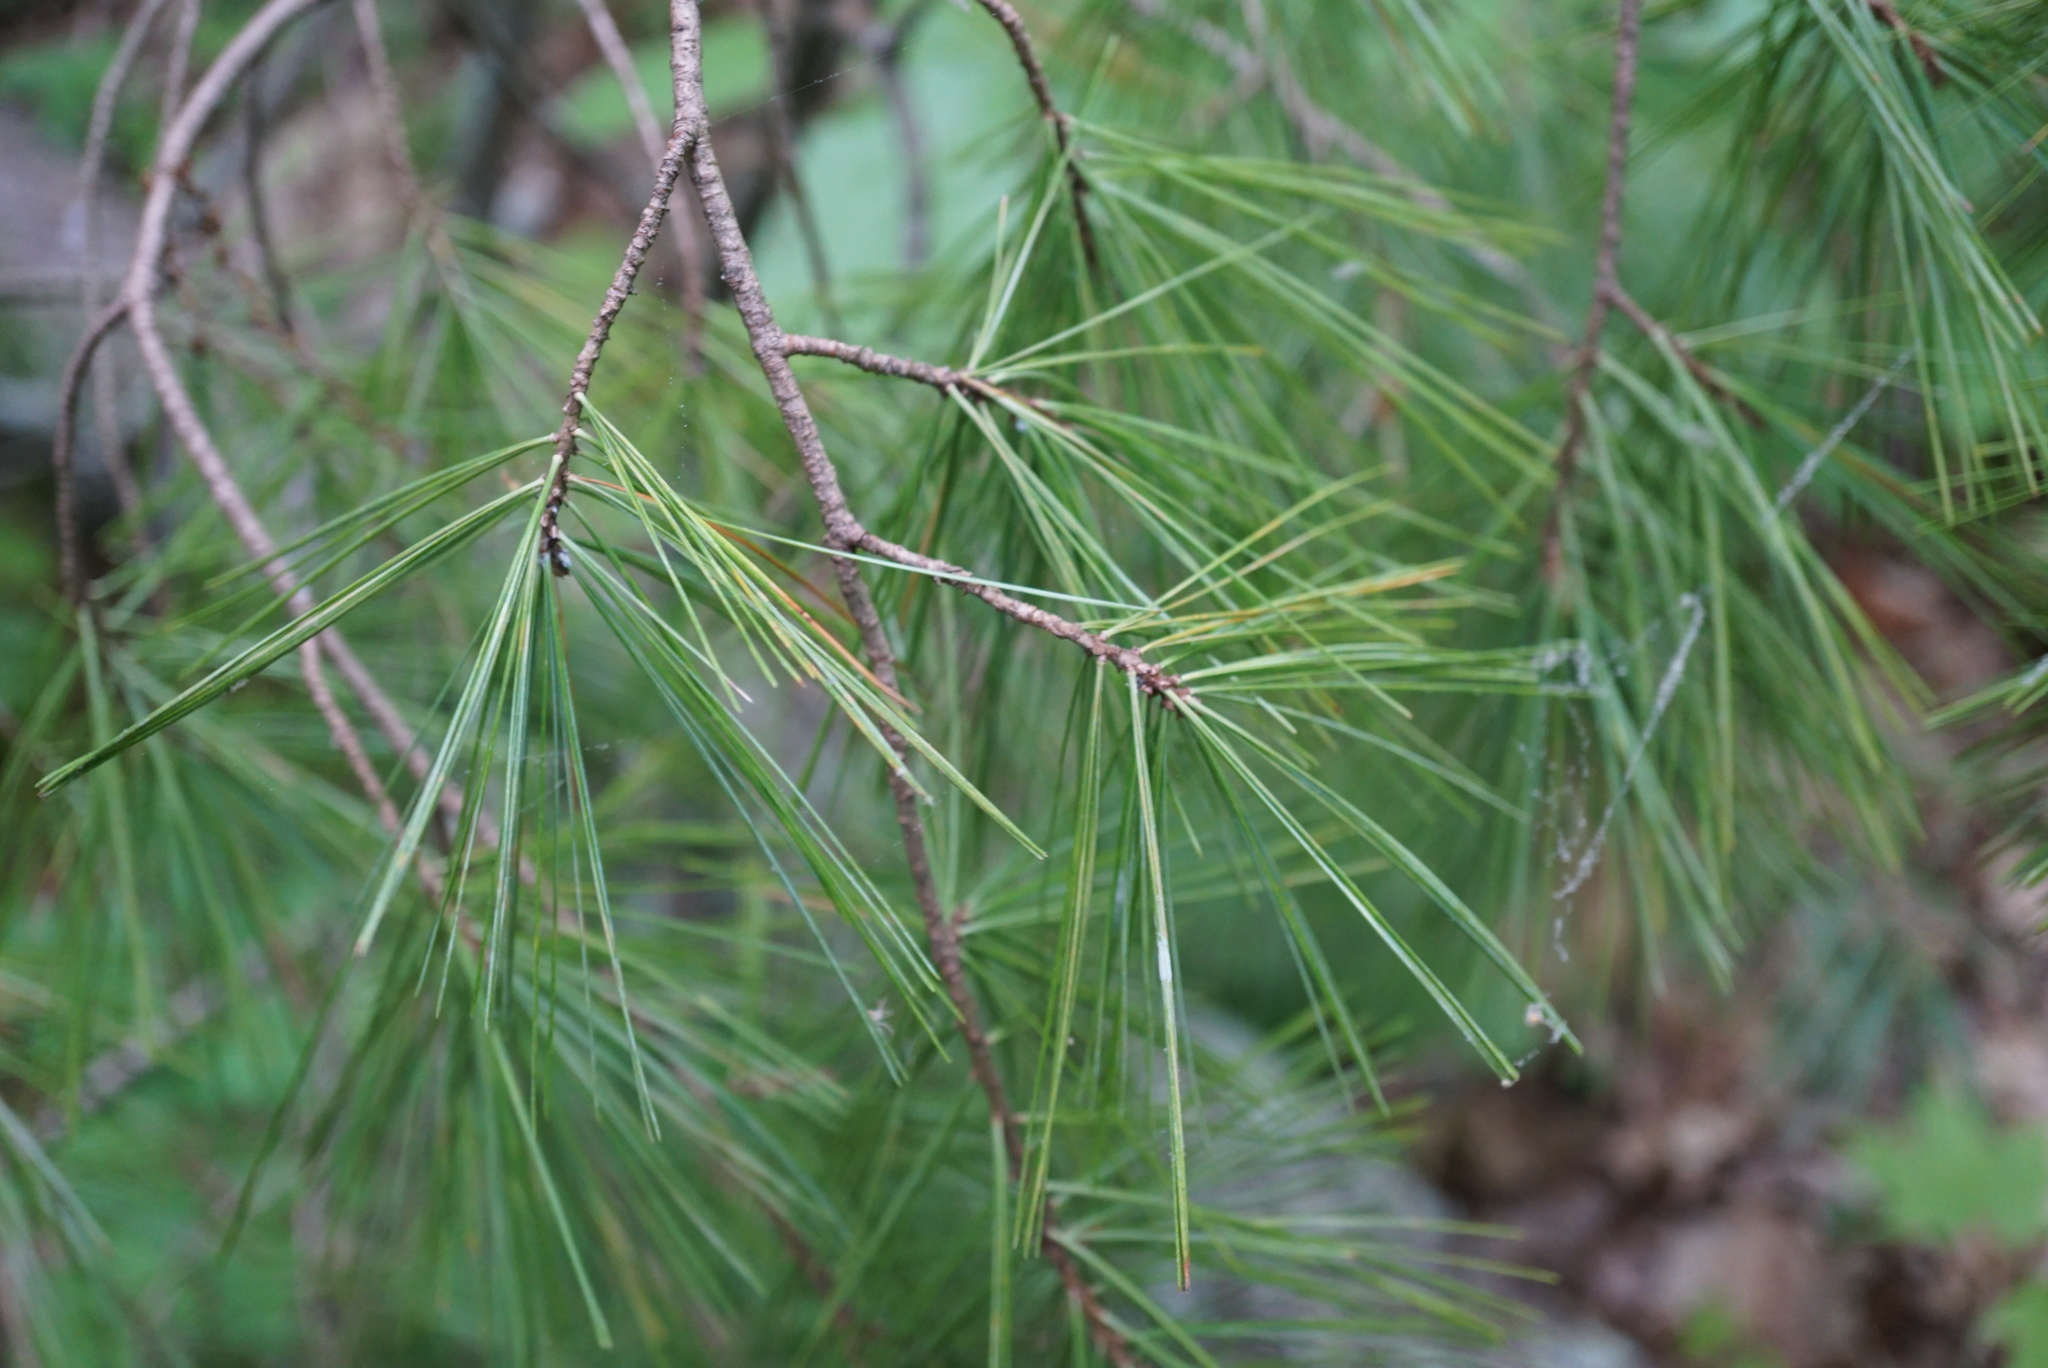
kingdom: Plantae
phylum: Tracheophyta
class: Pinopsida
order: Pinales
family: Pinaceae
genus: Pinus
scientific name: Pinus strobus
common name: Weymouth pine
